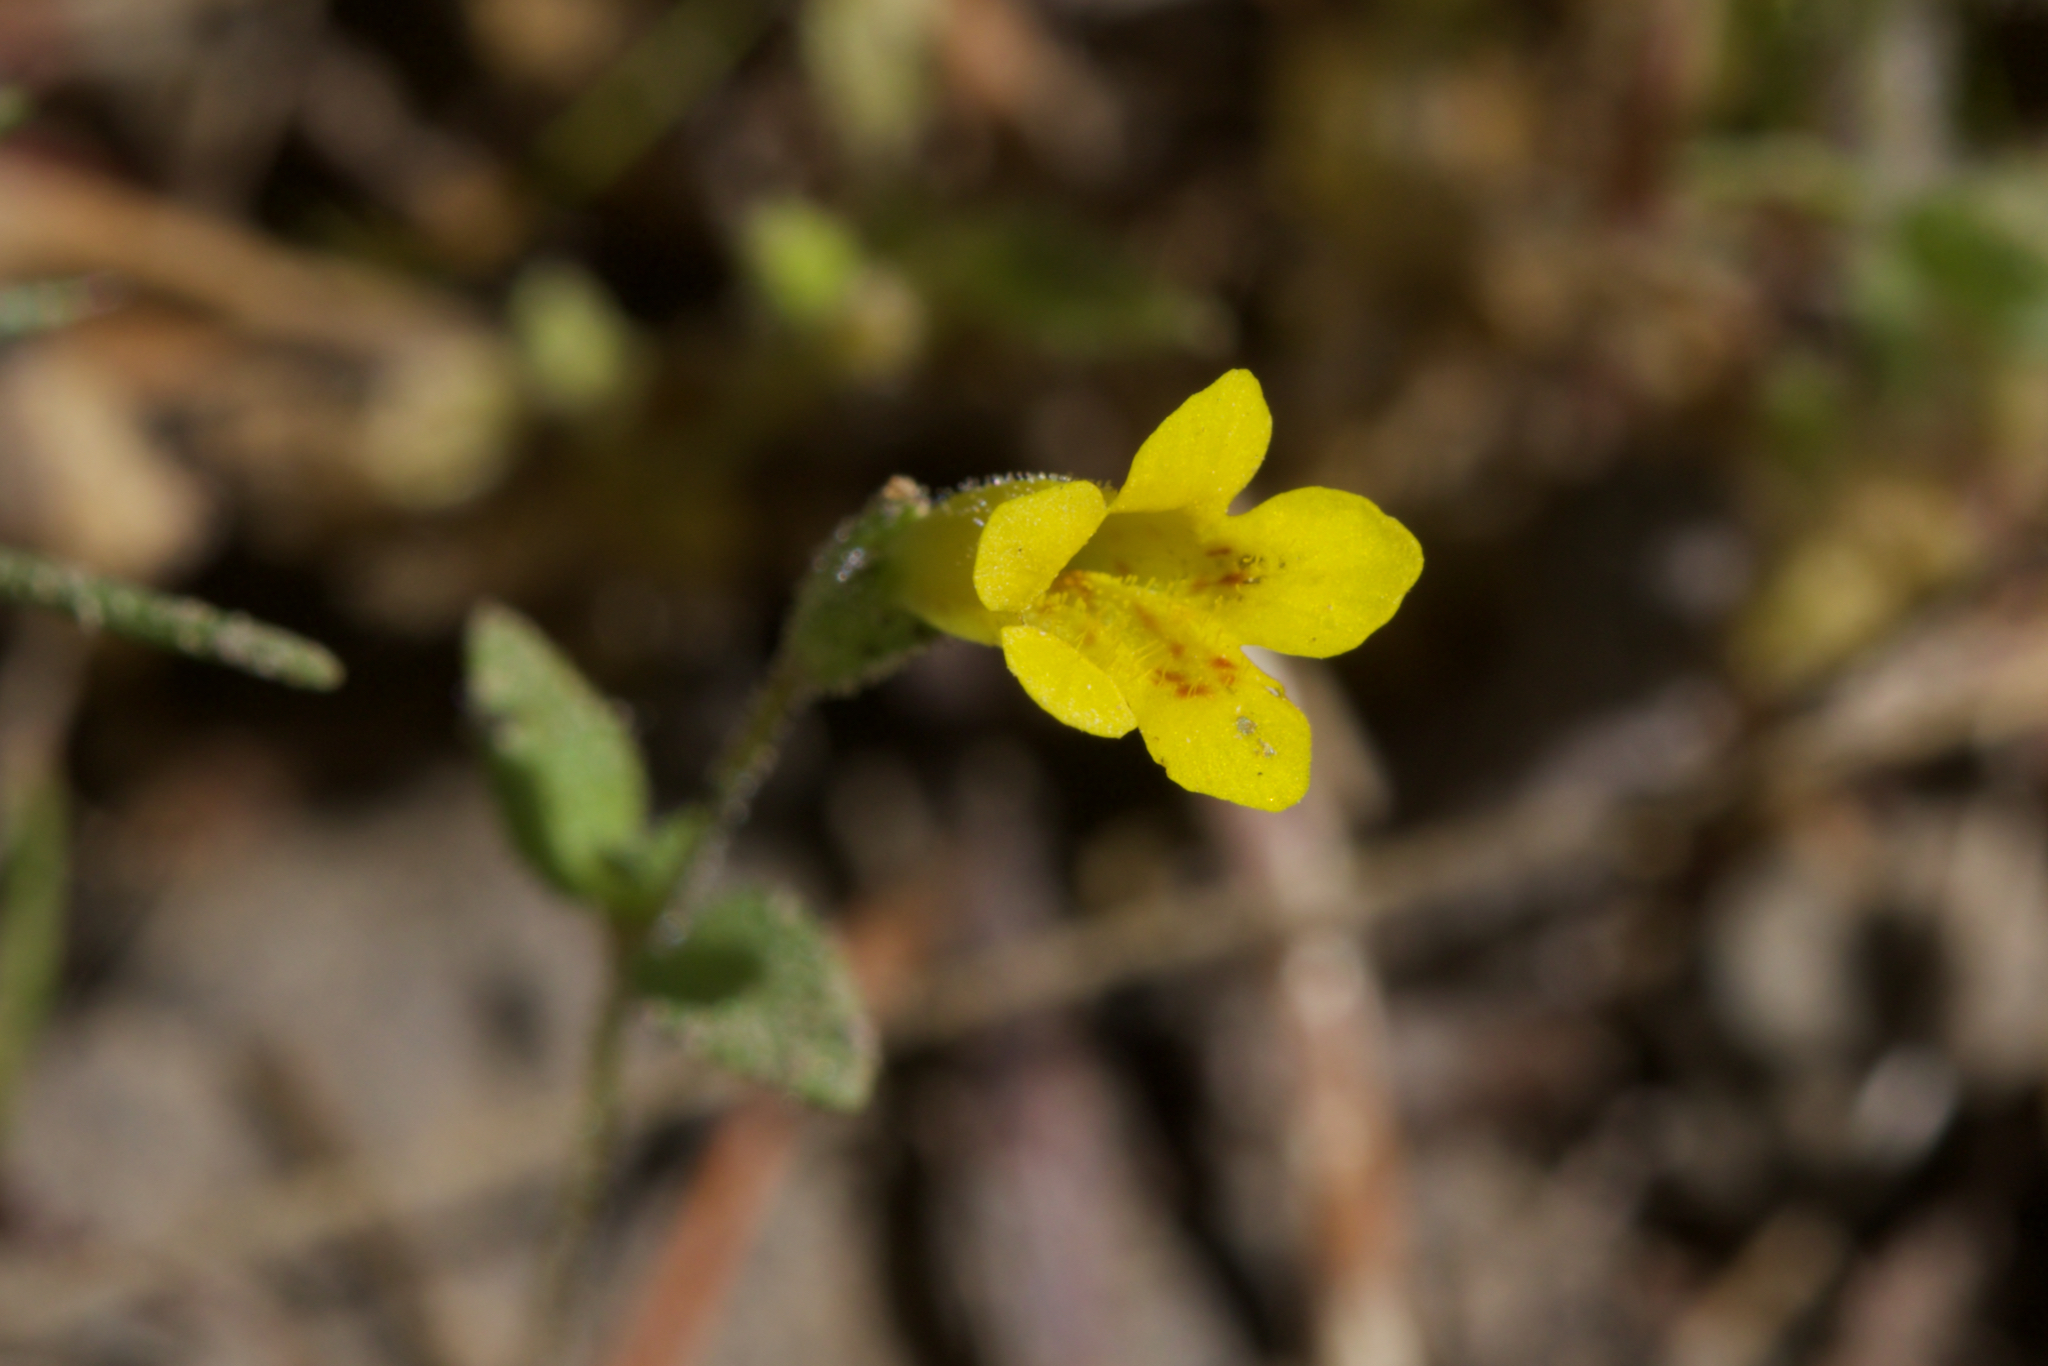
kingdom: Plantae
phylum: Tracheophyta
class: Magnoliopsida
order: Lamiales
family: Phrymaceae
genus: Erythranthe
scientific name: Erythranthe pulsiferae
